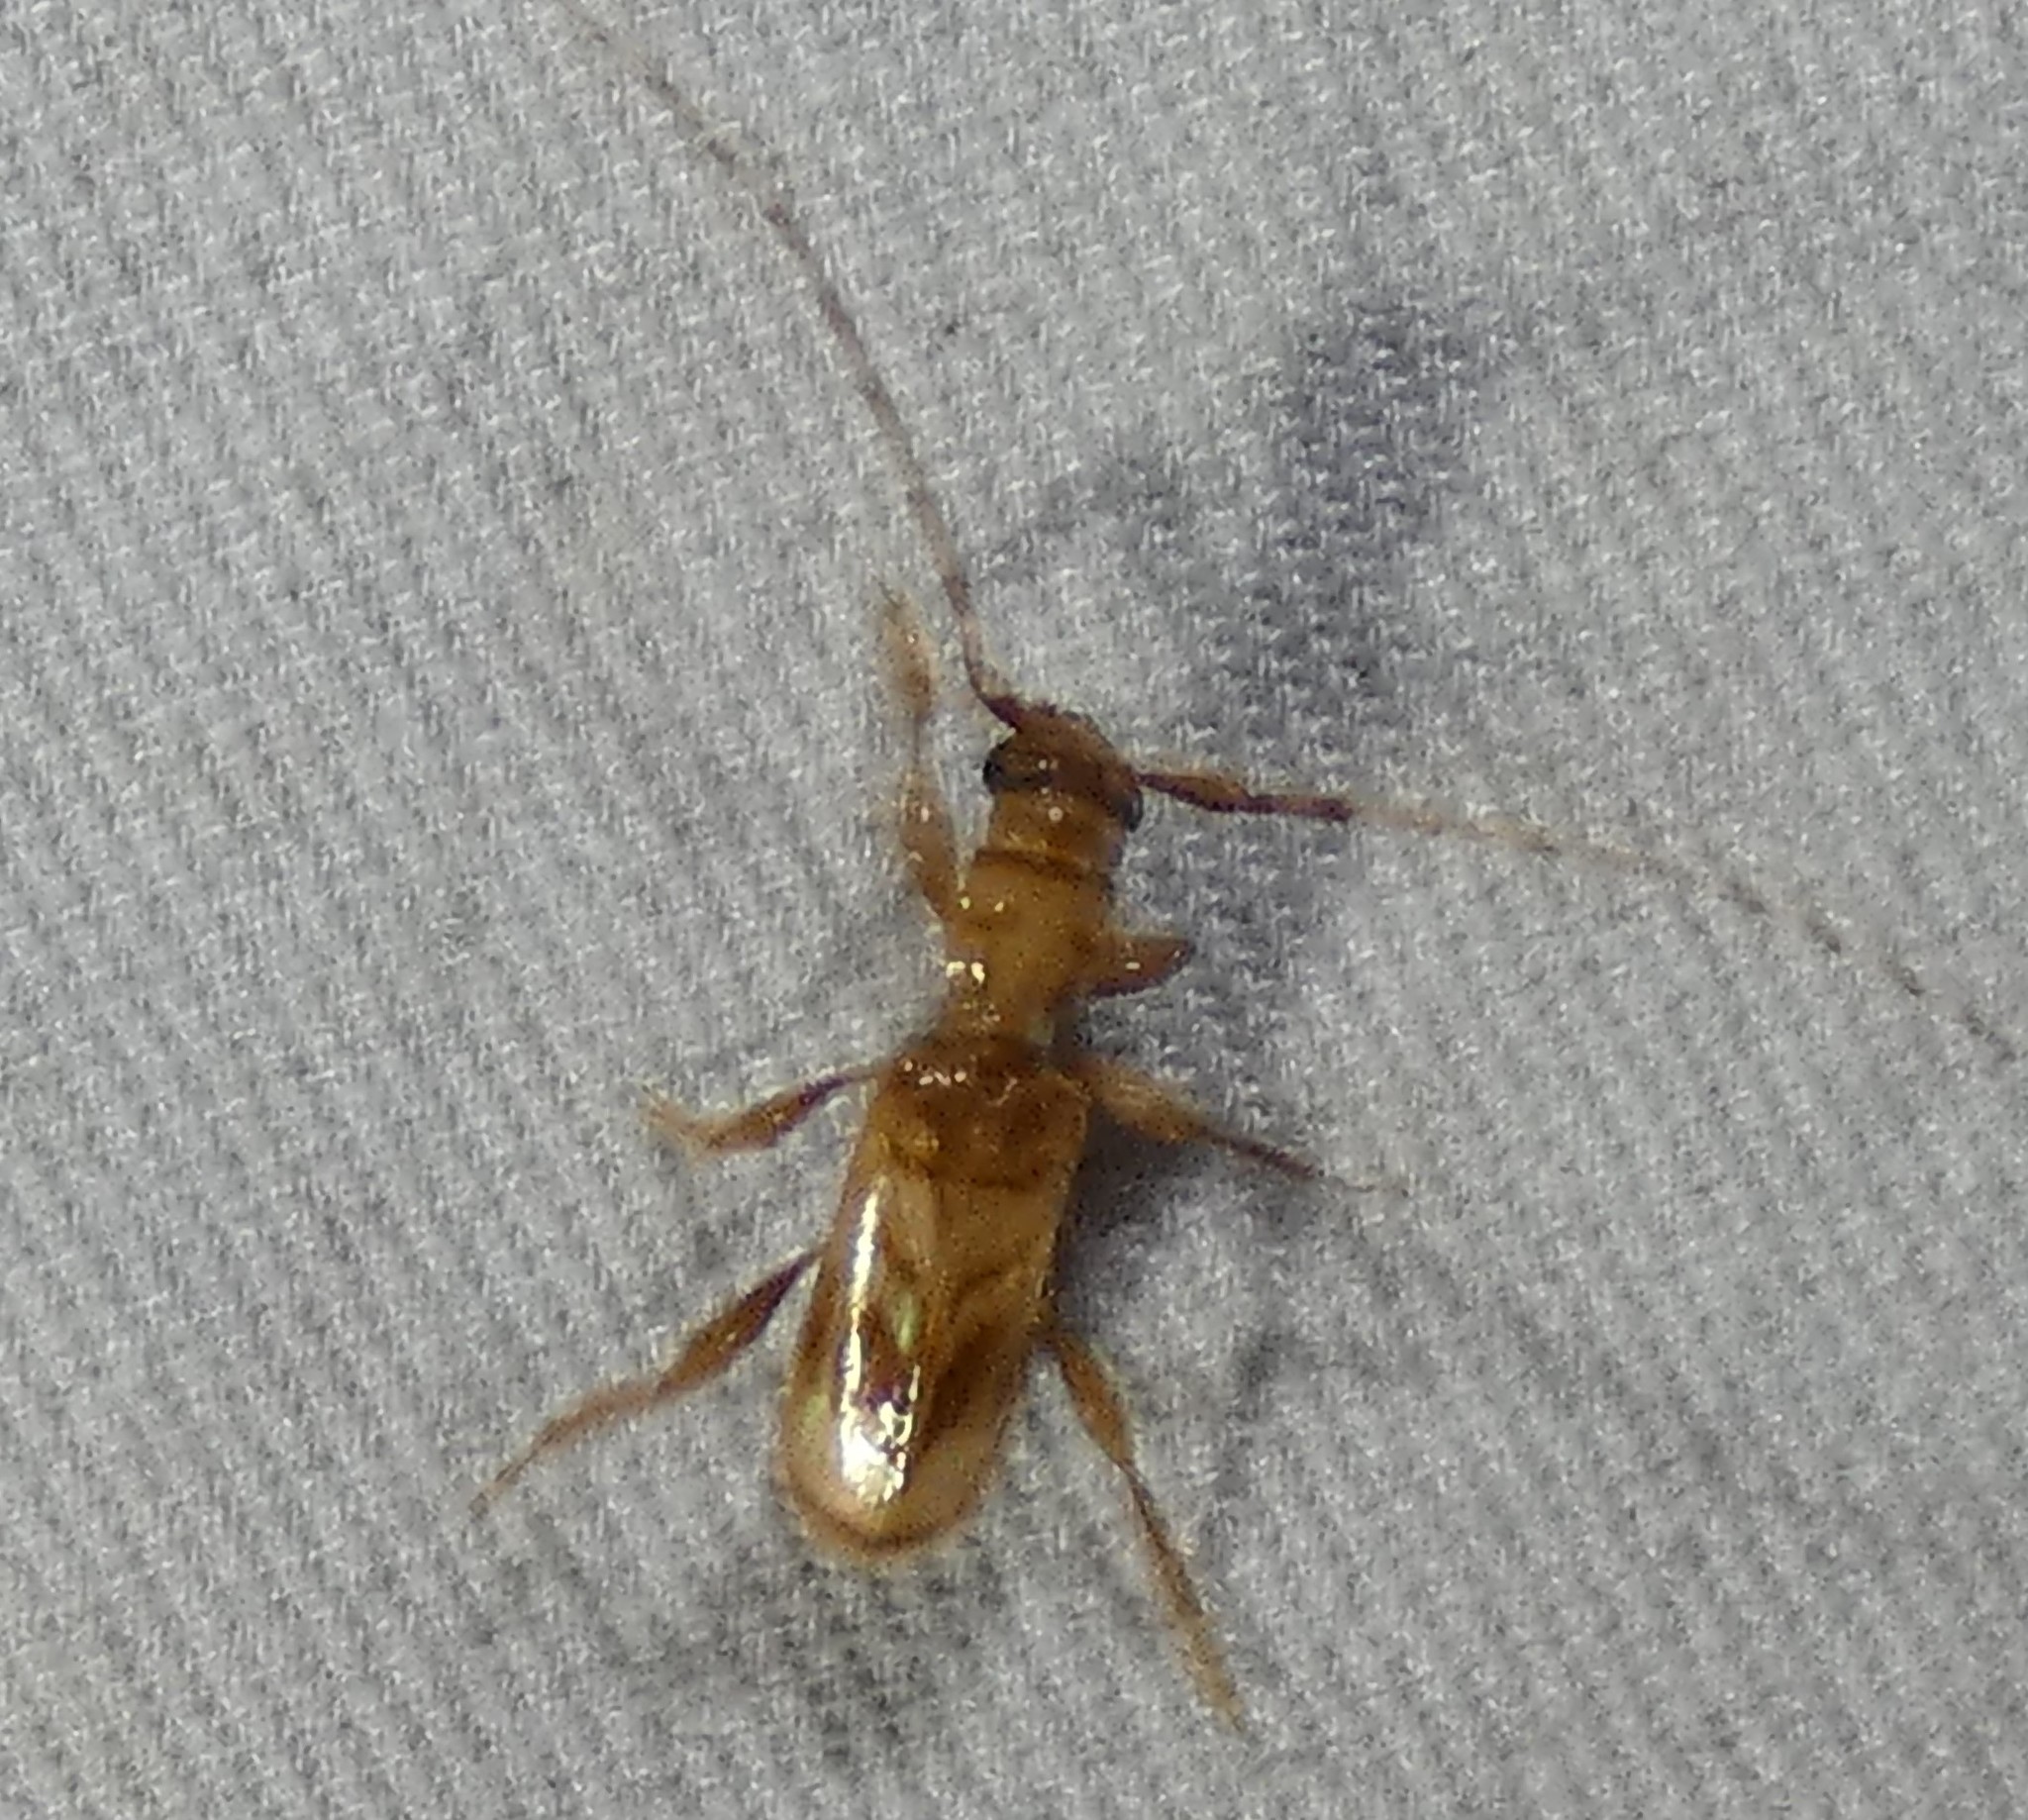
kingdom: Animalia
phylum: Arthropoda
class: Insecta
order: Coleoptera
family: Cerambycidae
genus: Obrium
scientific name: Obrium maculatum
